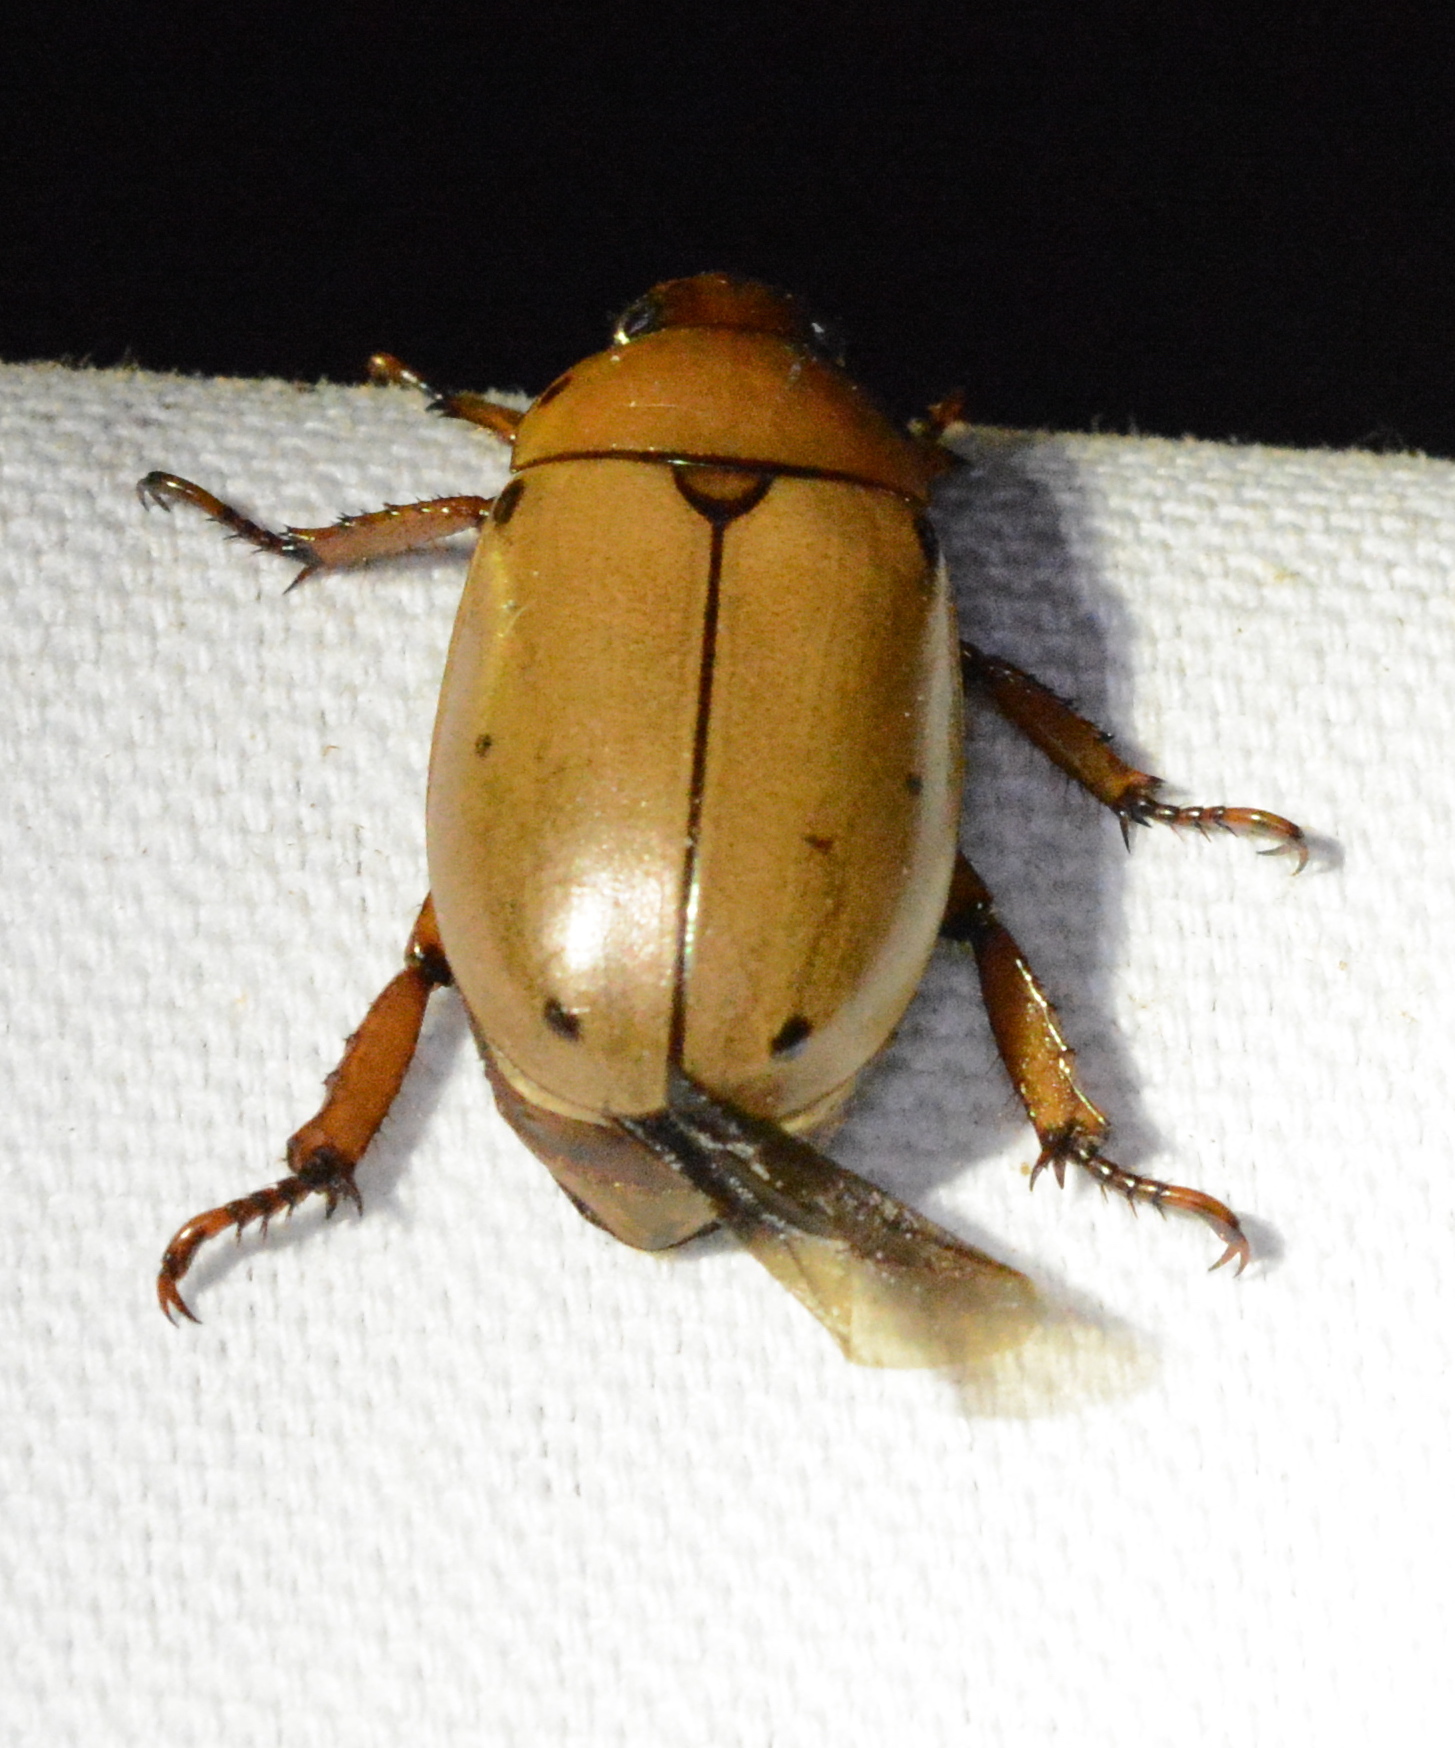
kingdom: Animalia
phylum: Arthropoda
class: Insecta
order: Coleoptera
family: Scarabaeidae
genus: Pelidnota
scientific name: Pelidnota punctata
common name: Grapevine beetle
